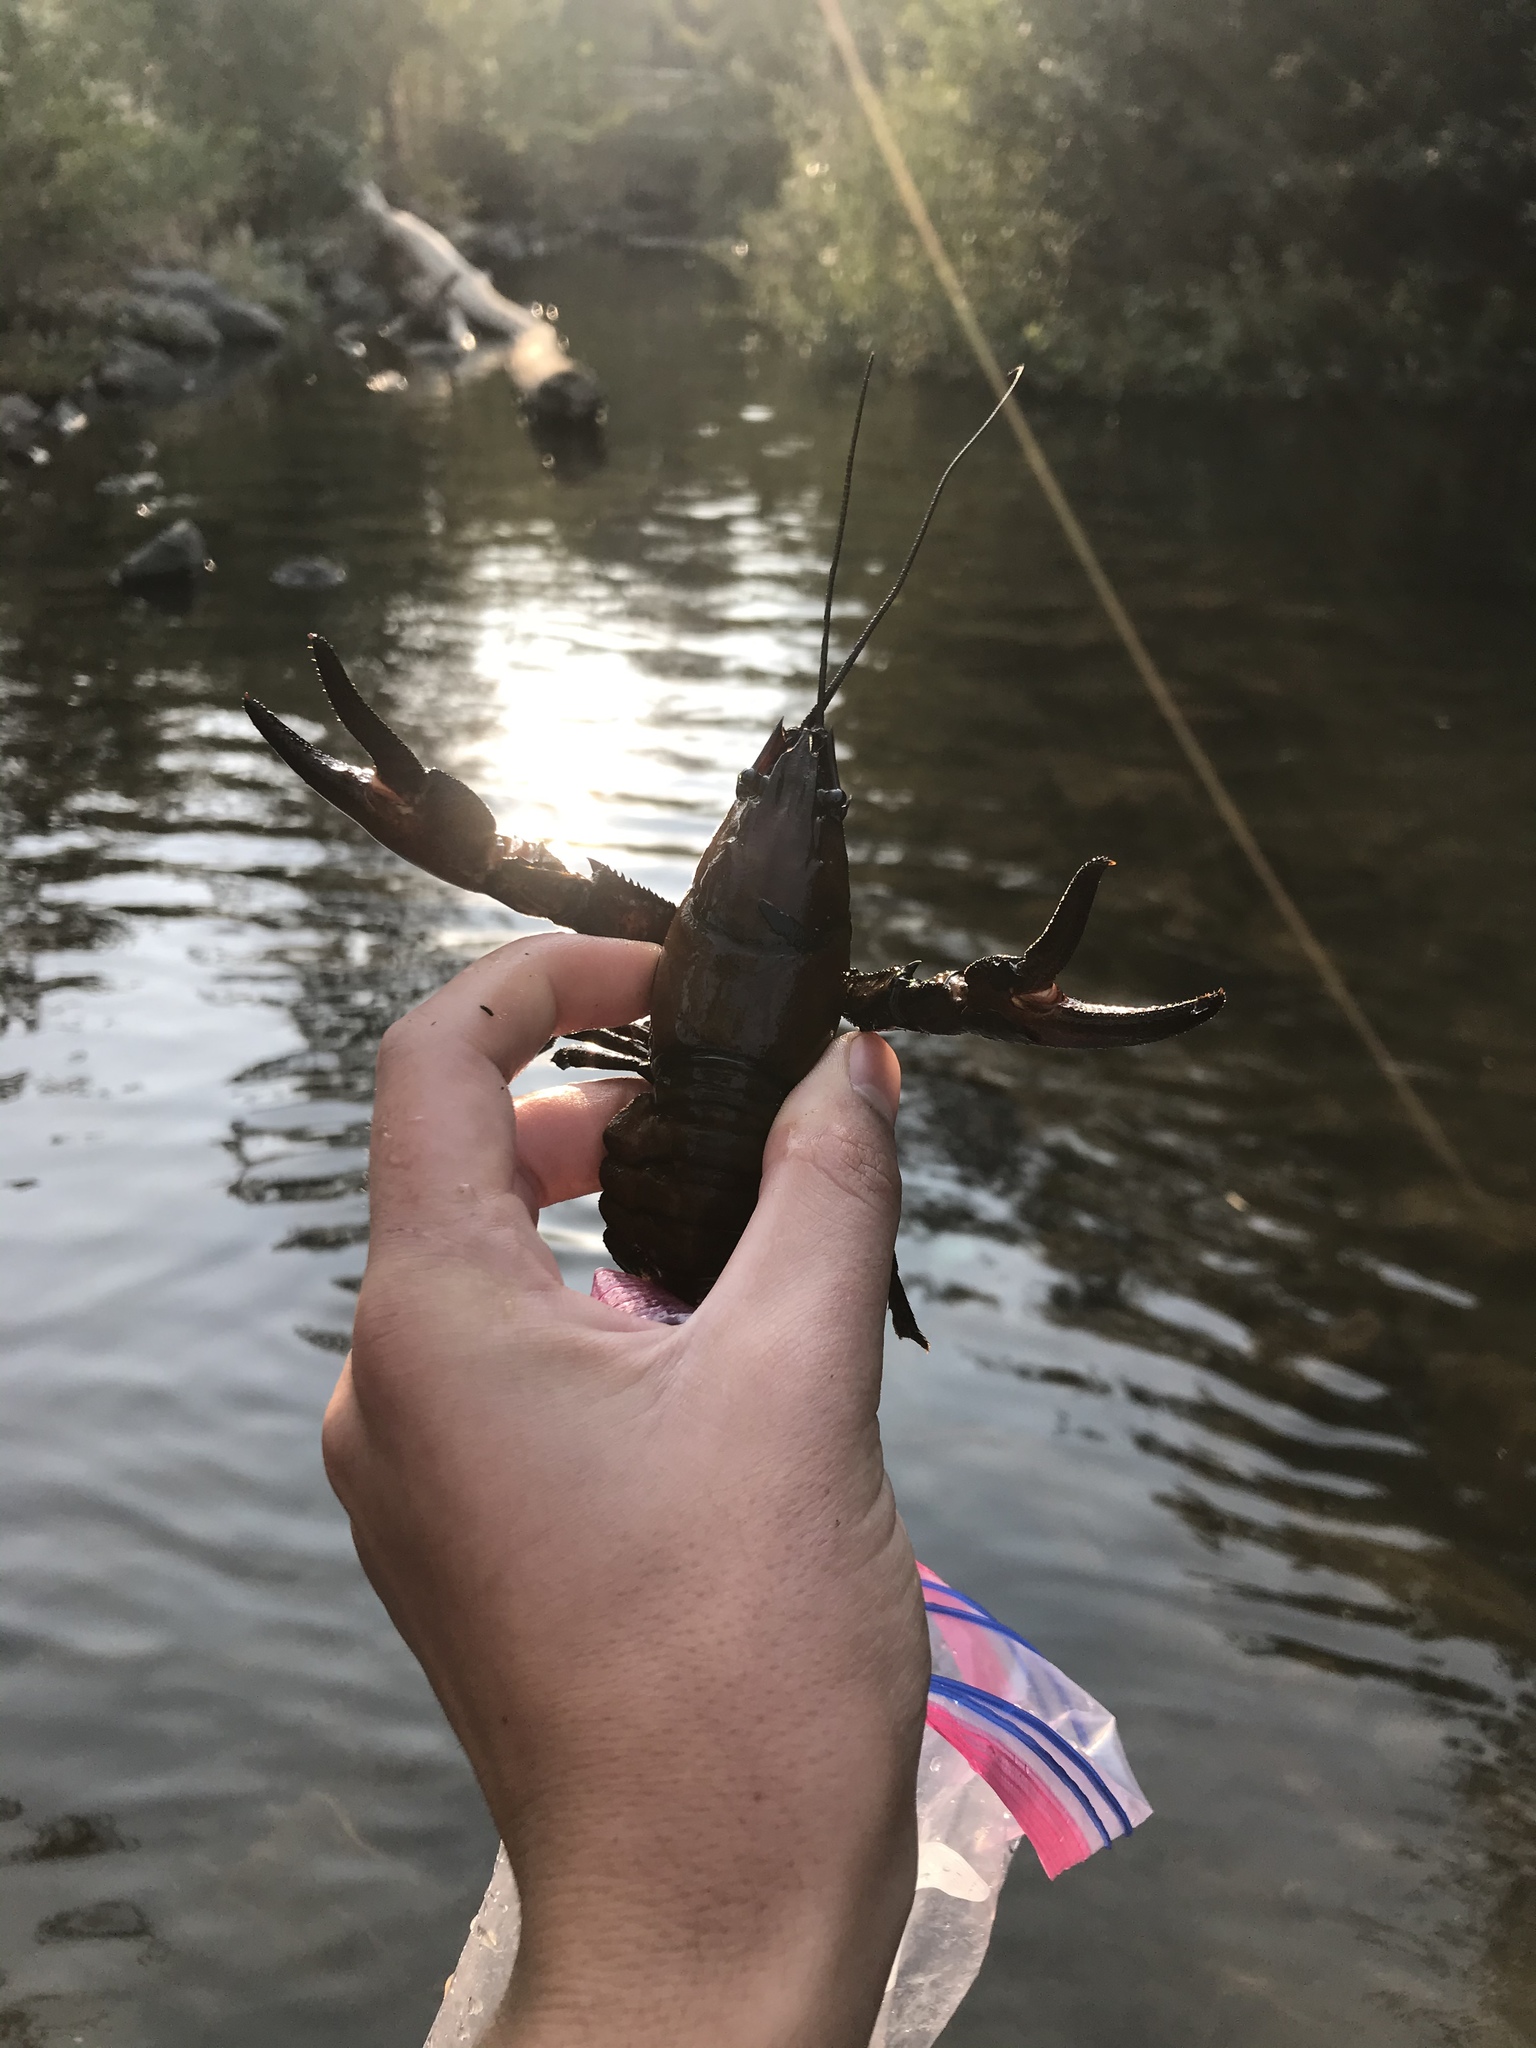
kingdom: Animalia
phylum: Arthropoda
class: Malacostraca
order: Decapoda
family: Astacidae
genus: Pacifastacus
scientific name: Pacifastacus leniusculus
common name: Signal crayfish
